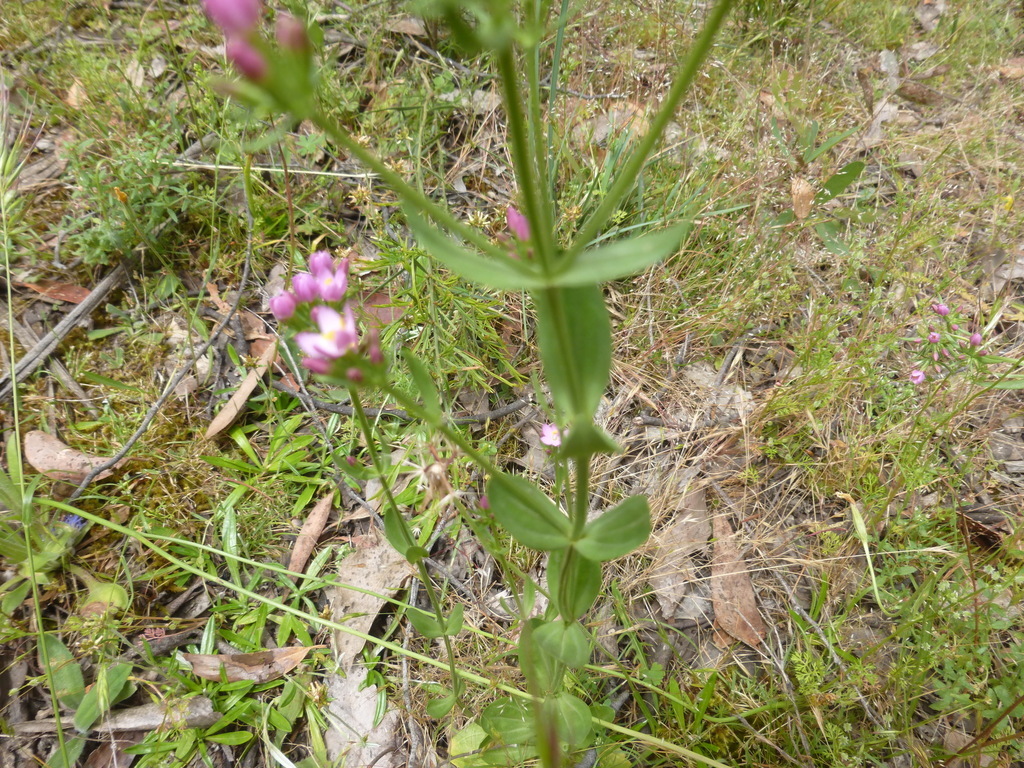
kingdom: Plantae
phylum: Tracheophyta
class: Magnoliopsida
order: Gentianales
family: Gentianaceae
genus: Centaurium
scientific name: Centaurium erythraea
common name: Common centaury
